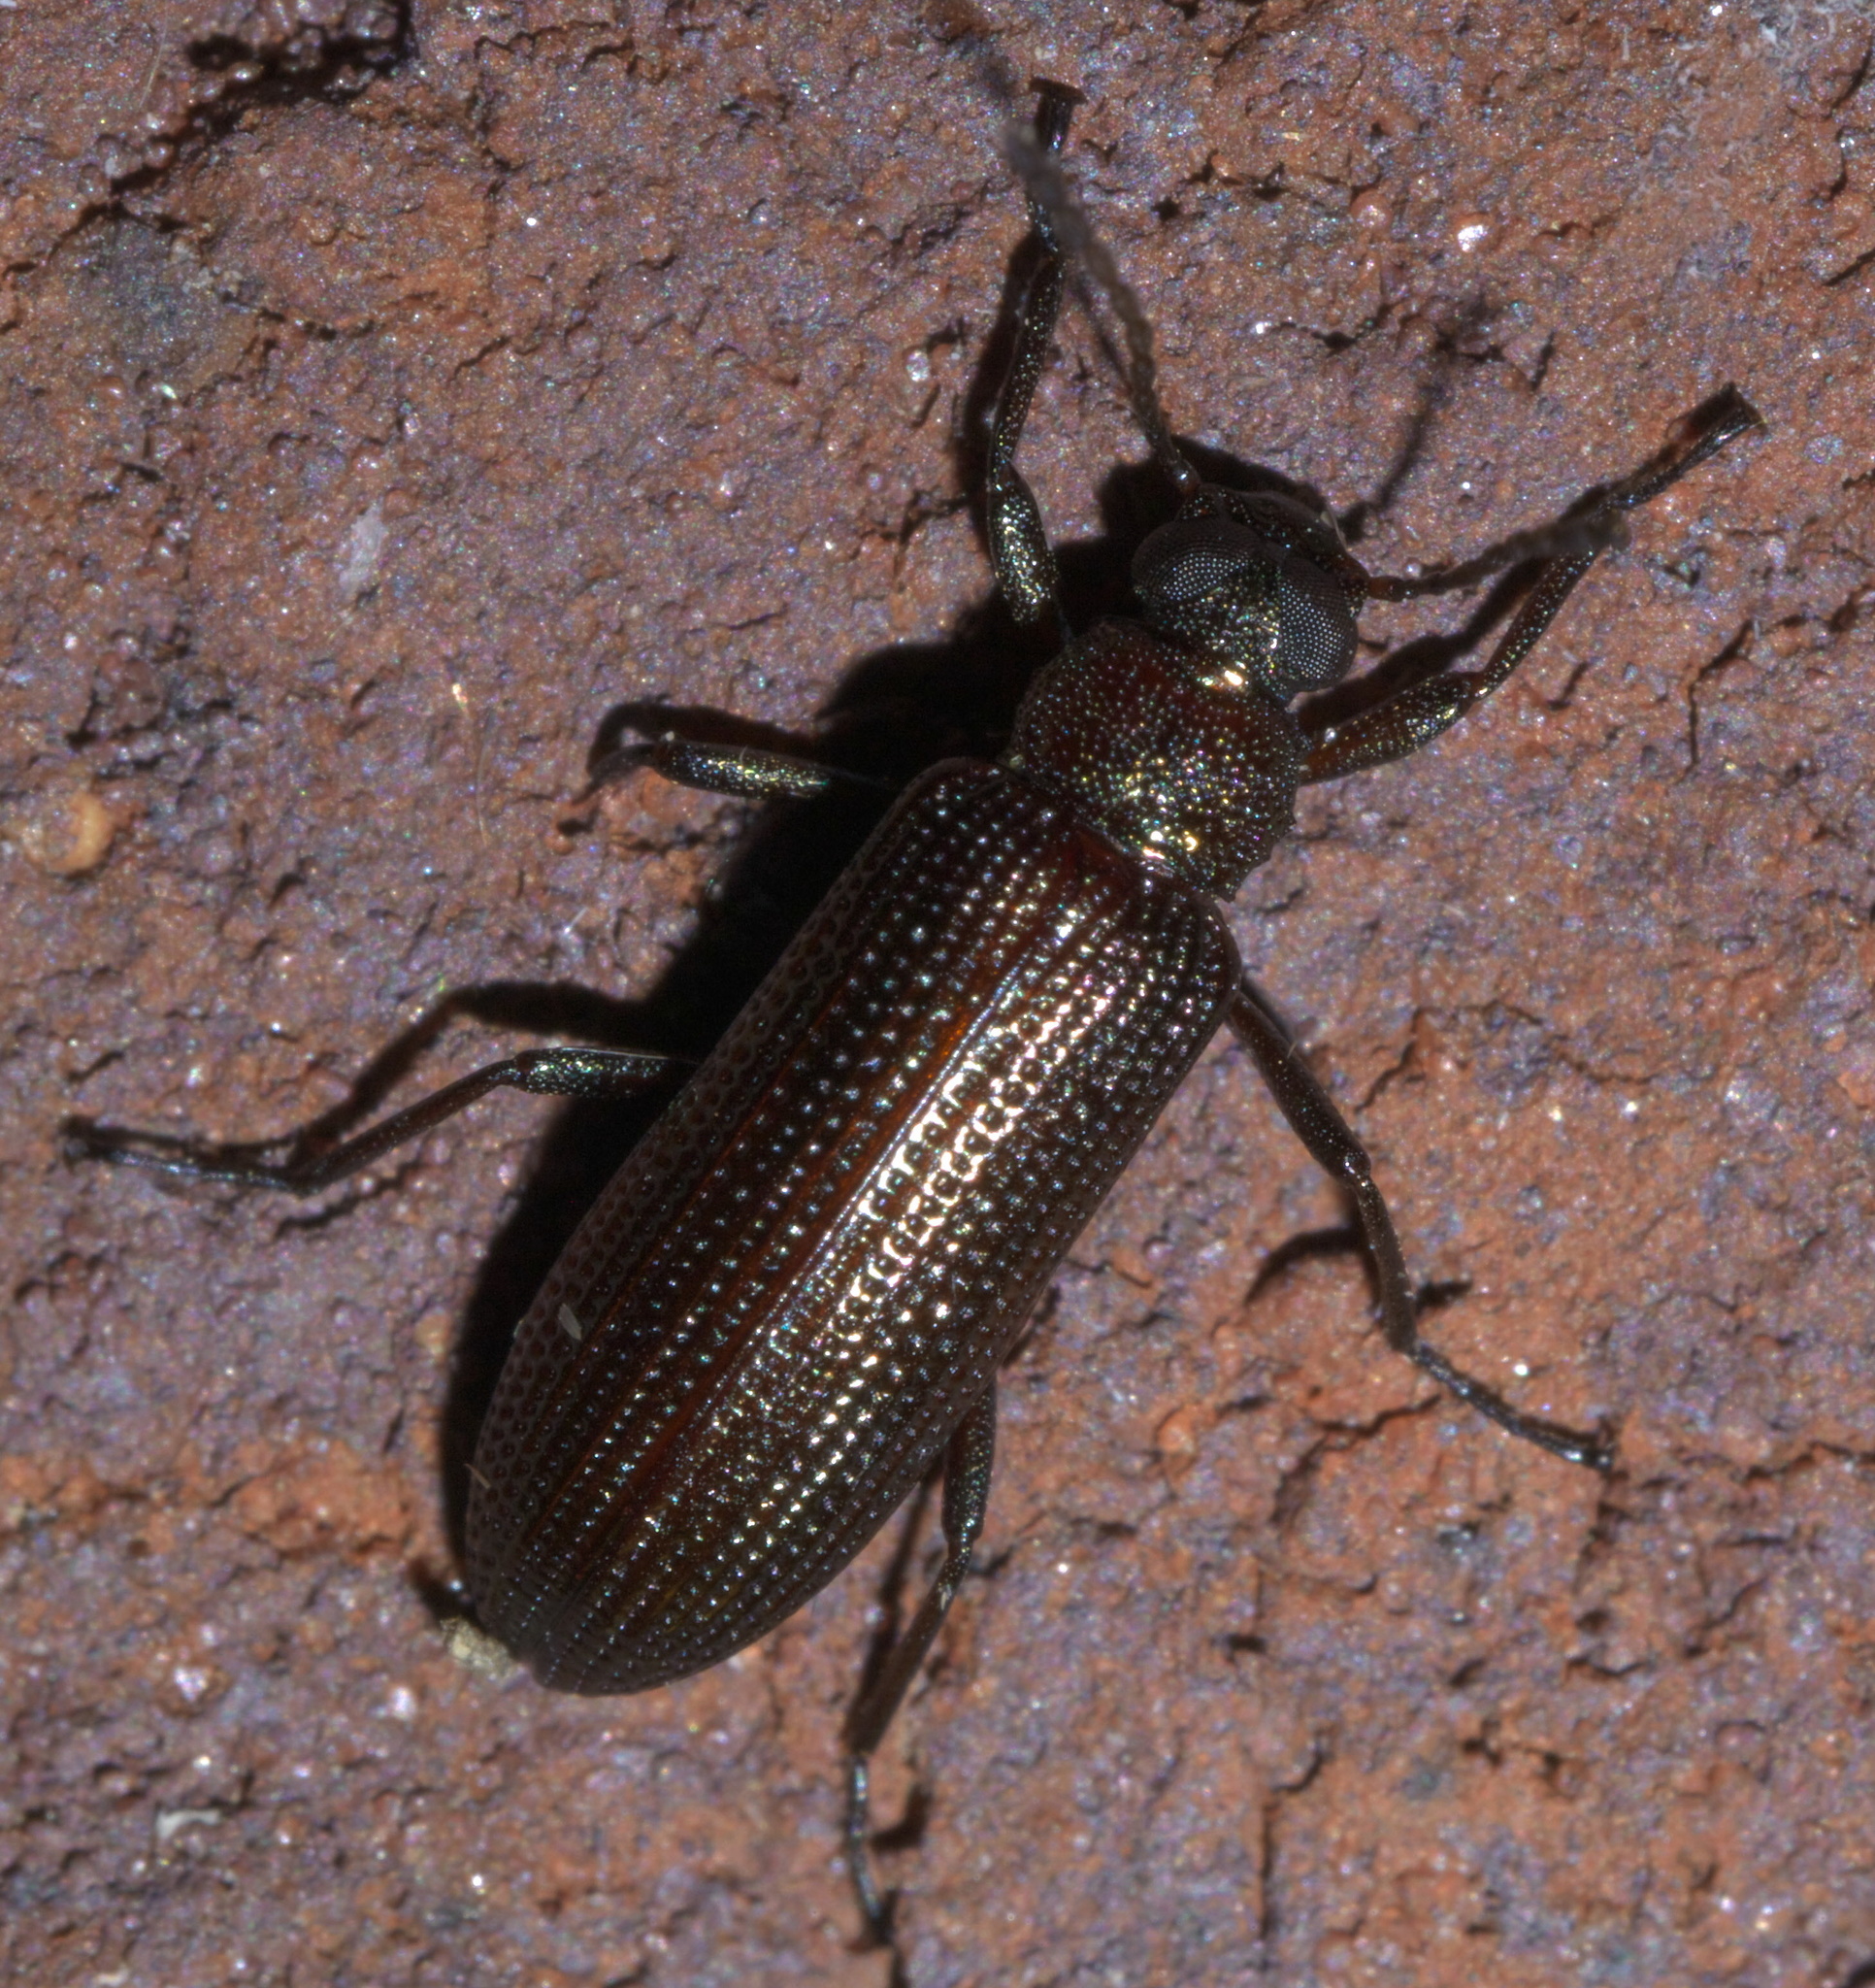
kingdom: Animalia
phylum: Arthropoda
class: Insecta
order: Coleoptera
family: Tenebrionidae
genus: Strongylium
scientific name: Strongylium
